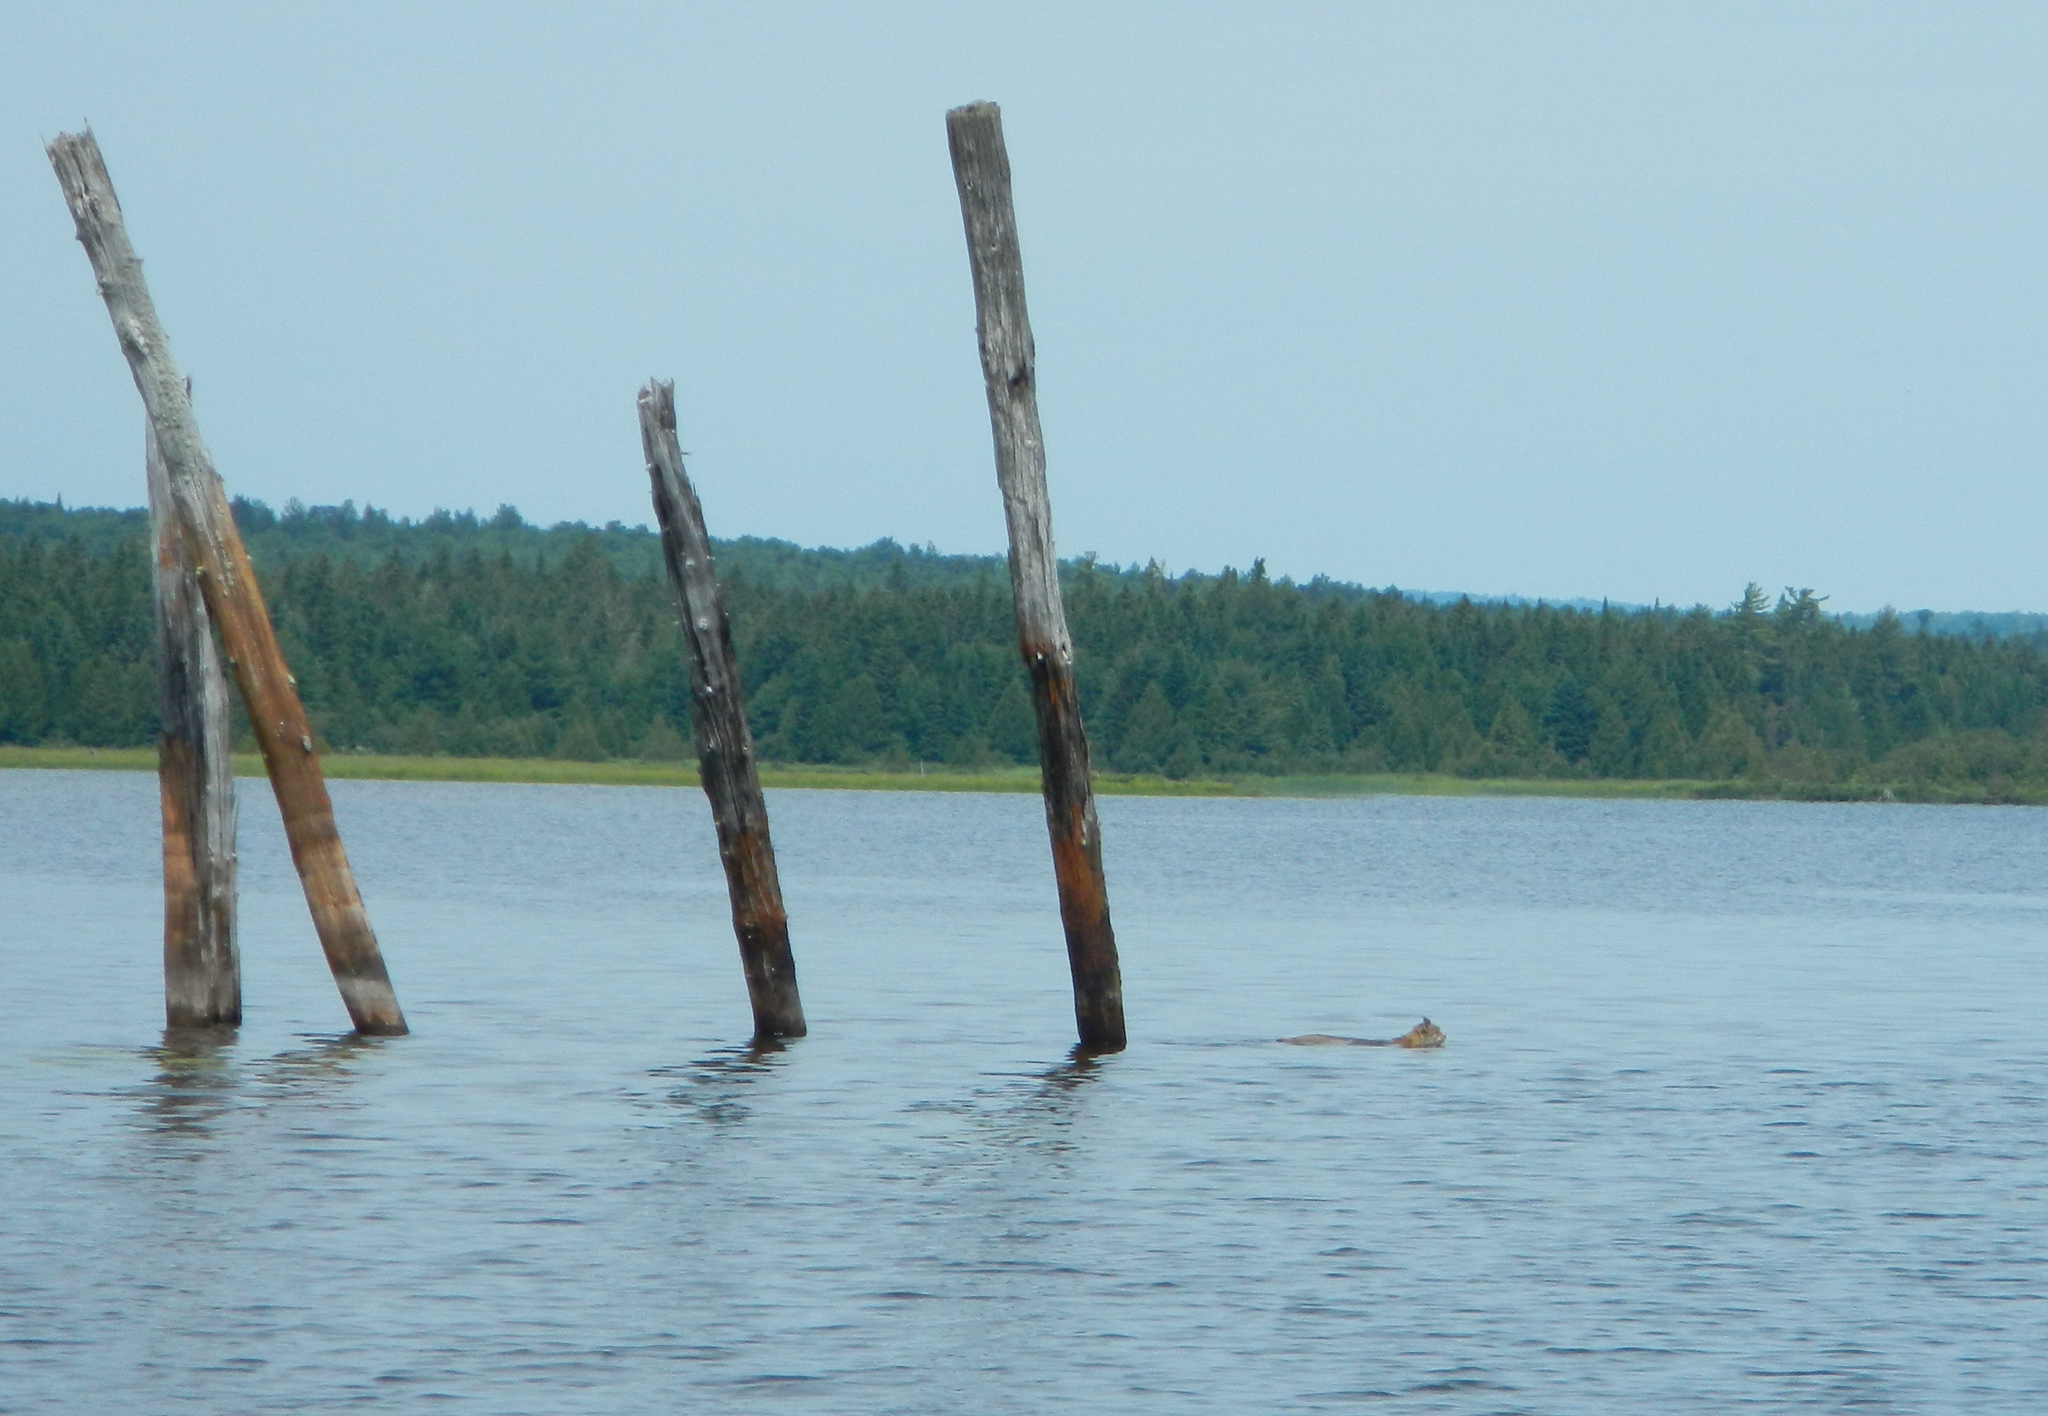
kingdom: Animalia
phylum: Chordata
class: Mammalia
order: Carnivora
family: Felidae
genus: Lynx
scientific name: Lynx canadensis
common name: Canadian lynx
